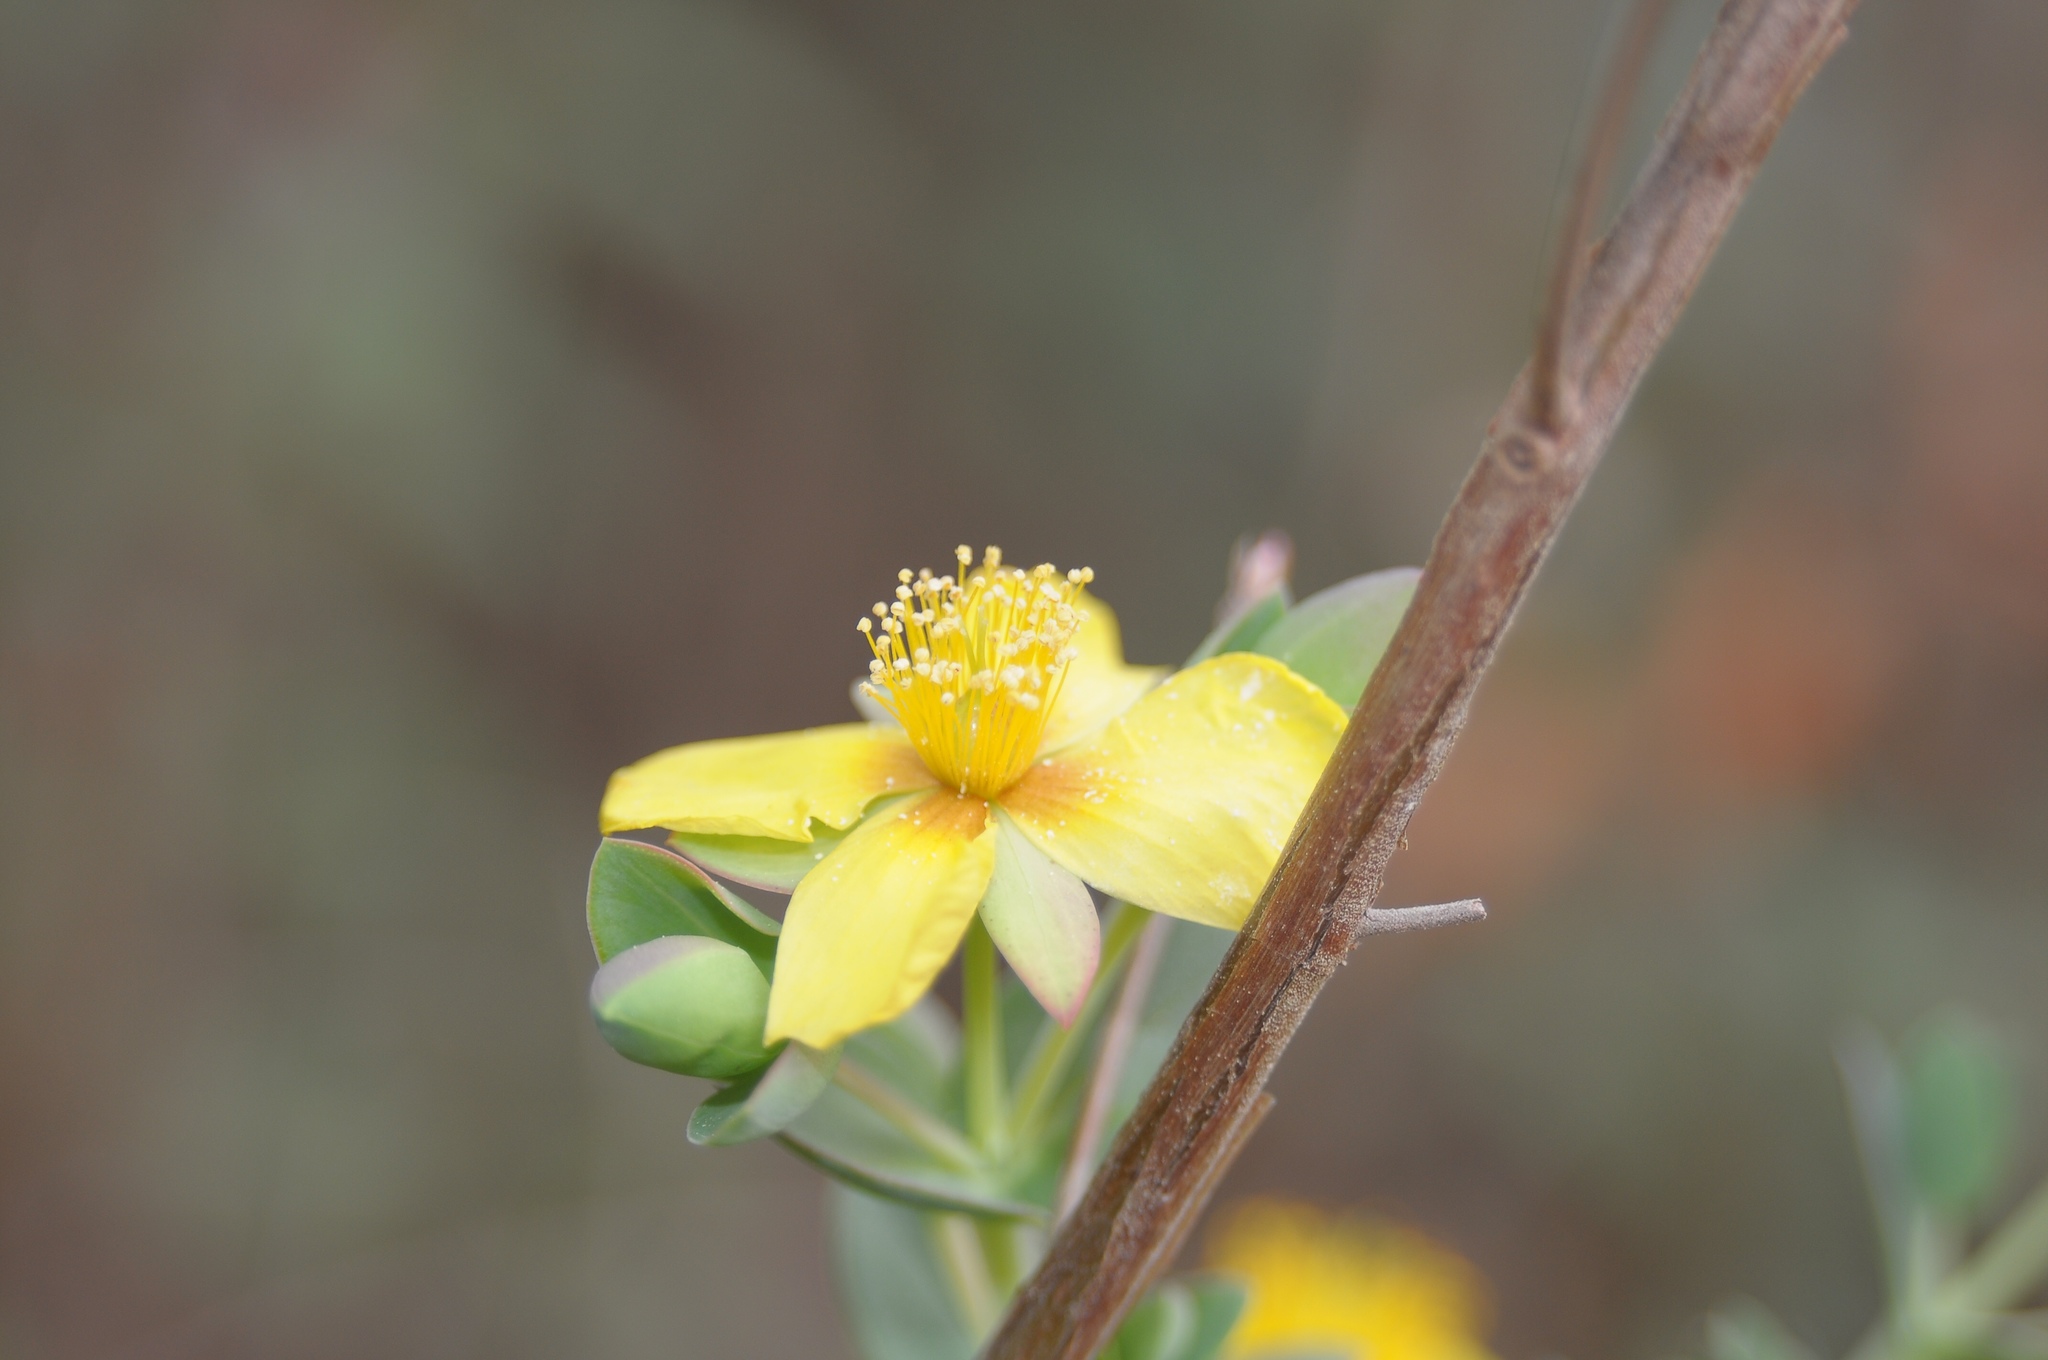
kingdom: Plantae
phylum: Tracheophyta
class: Magnoliopsida
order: Malpighiales
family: Hypericaceae
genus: Hypericum
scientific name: Hypericum tetrapetalum
